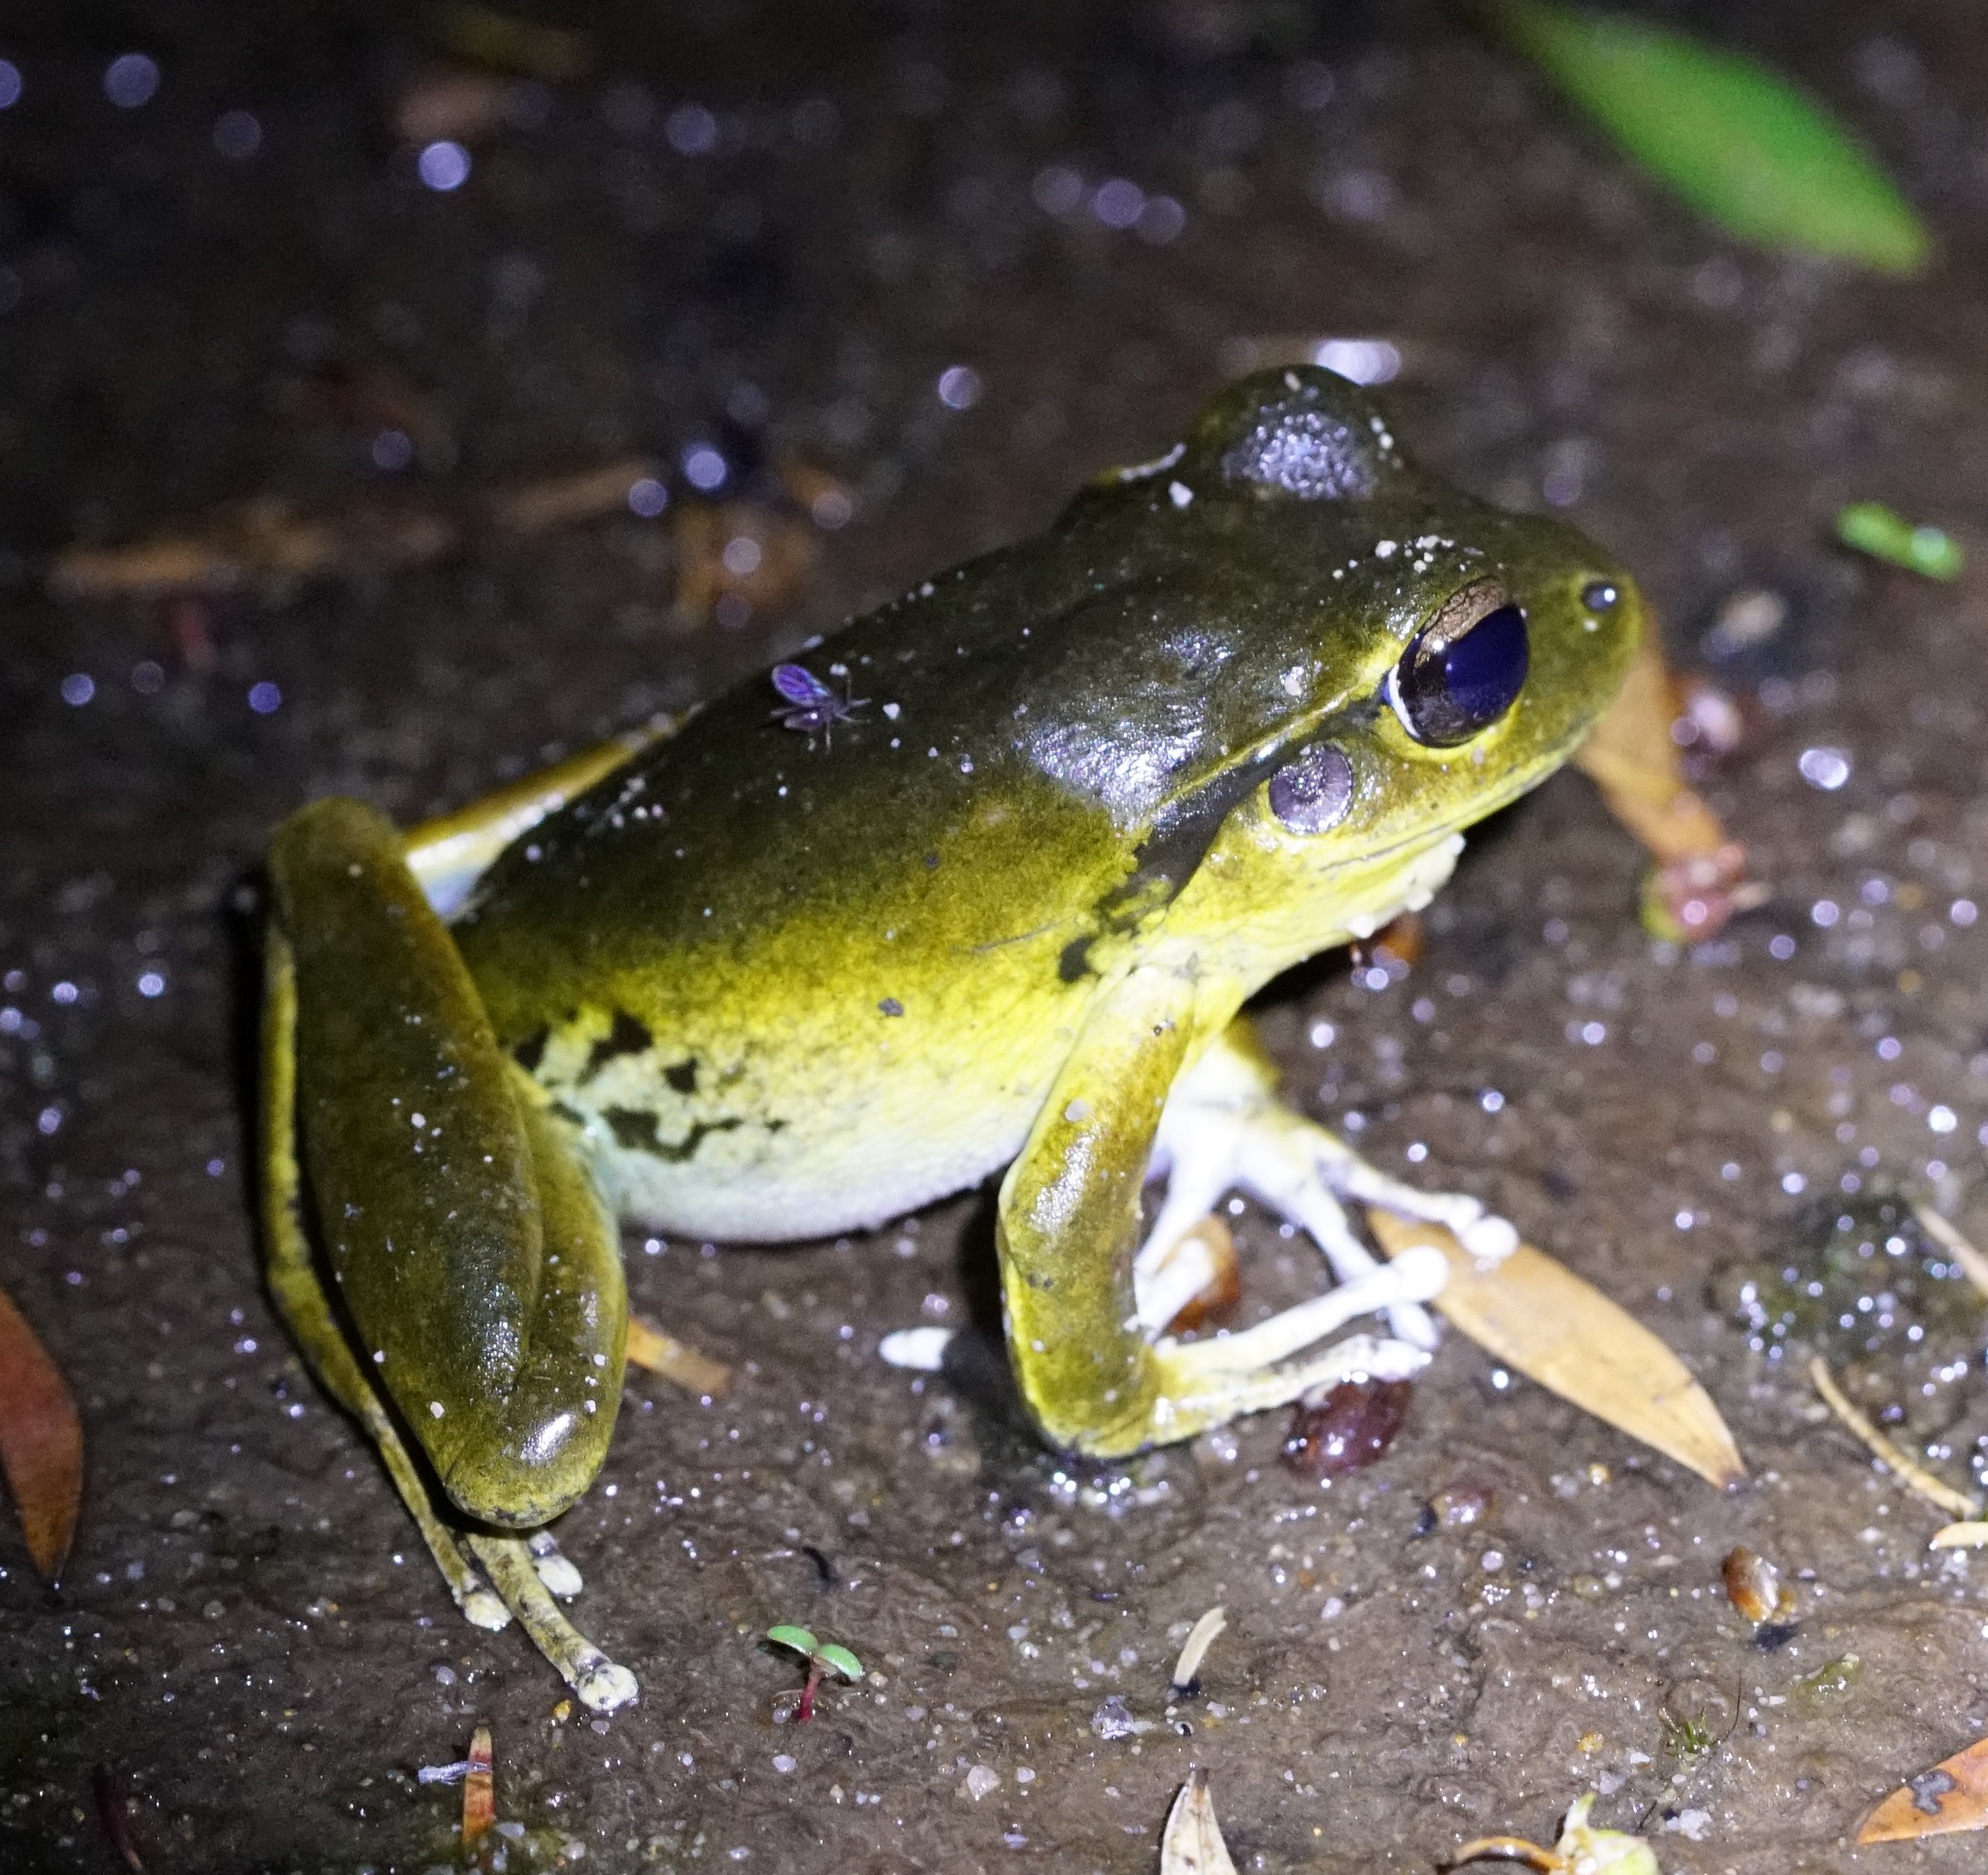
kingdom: Animalia
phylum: Chordata
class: Amphibia
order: Anura
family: Pelodryadidae
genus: Ranoidea
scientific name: Ranoidea lesueurii
